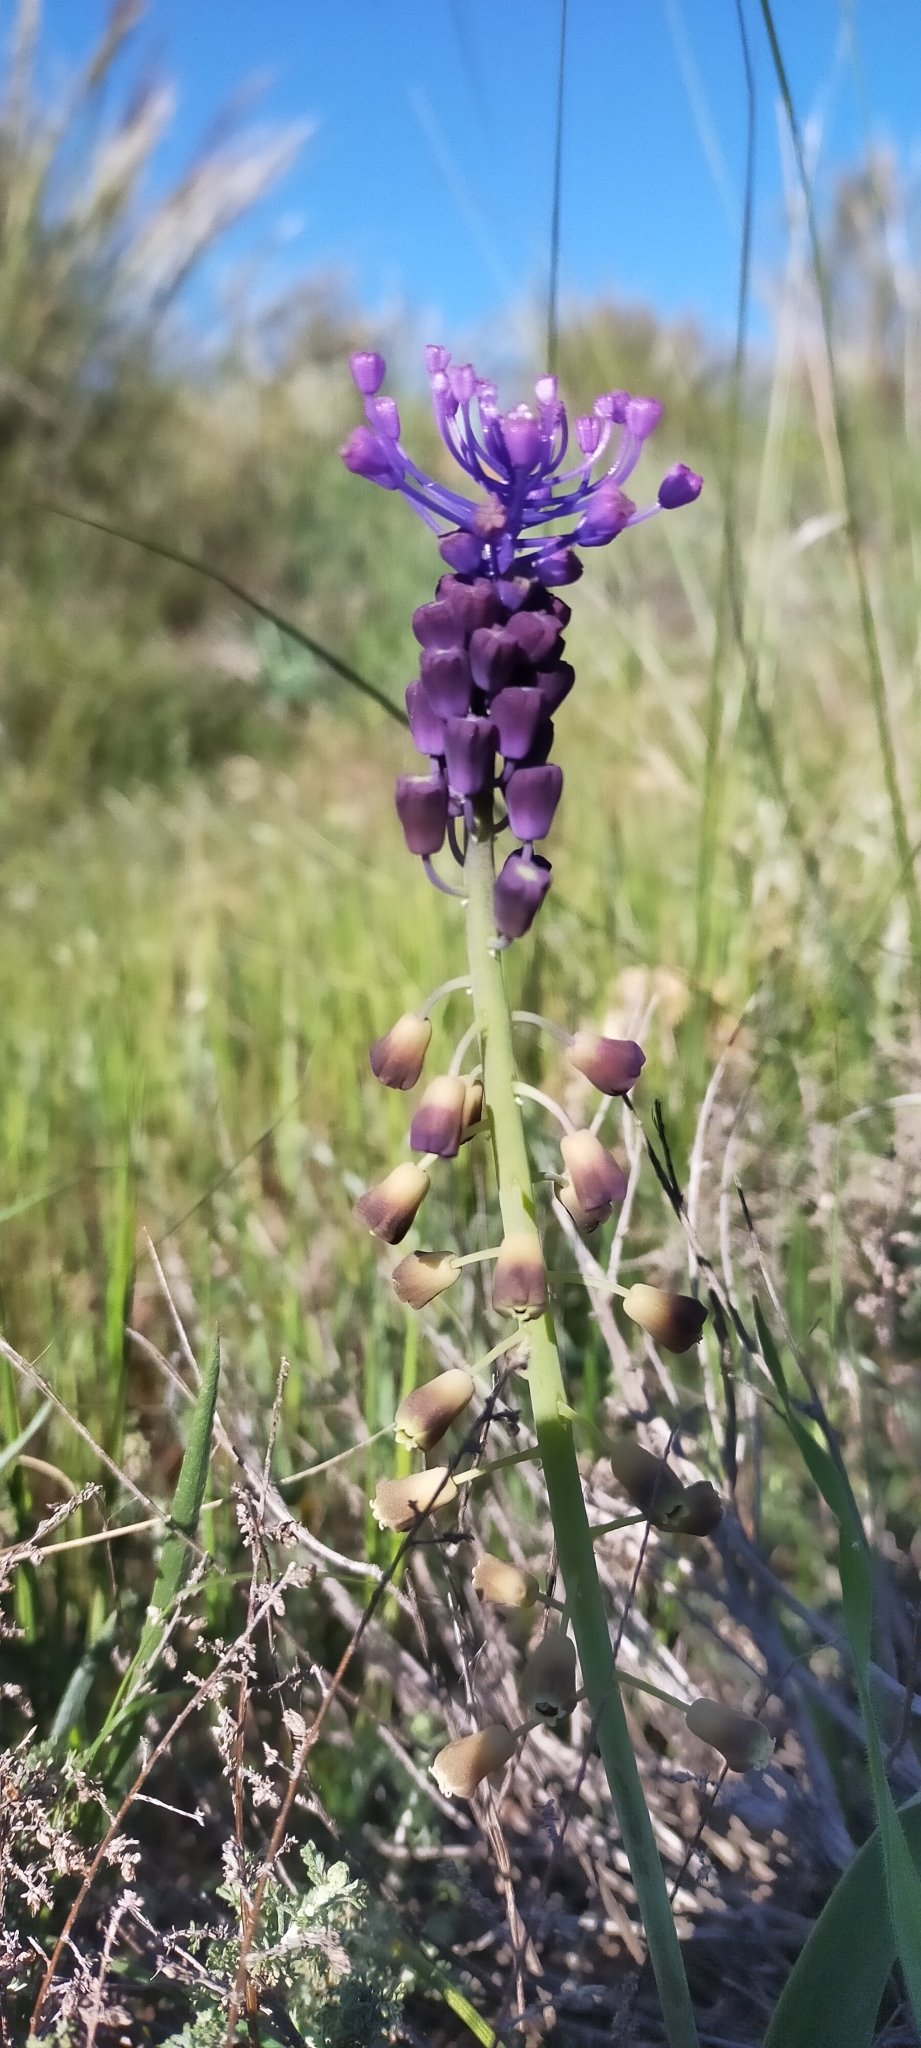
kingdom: Plantae
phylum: Tracheophyta
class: Liliopsida
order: Asparagales
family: Asparagaceae
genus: Muscari
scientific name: Muscari comosum
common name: Tassel hyacinth
